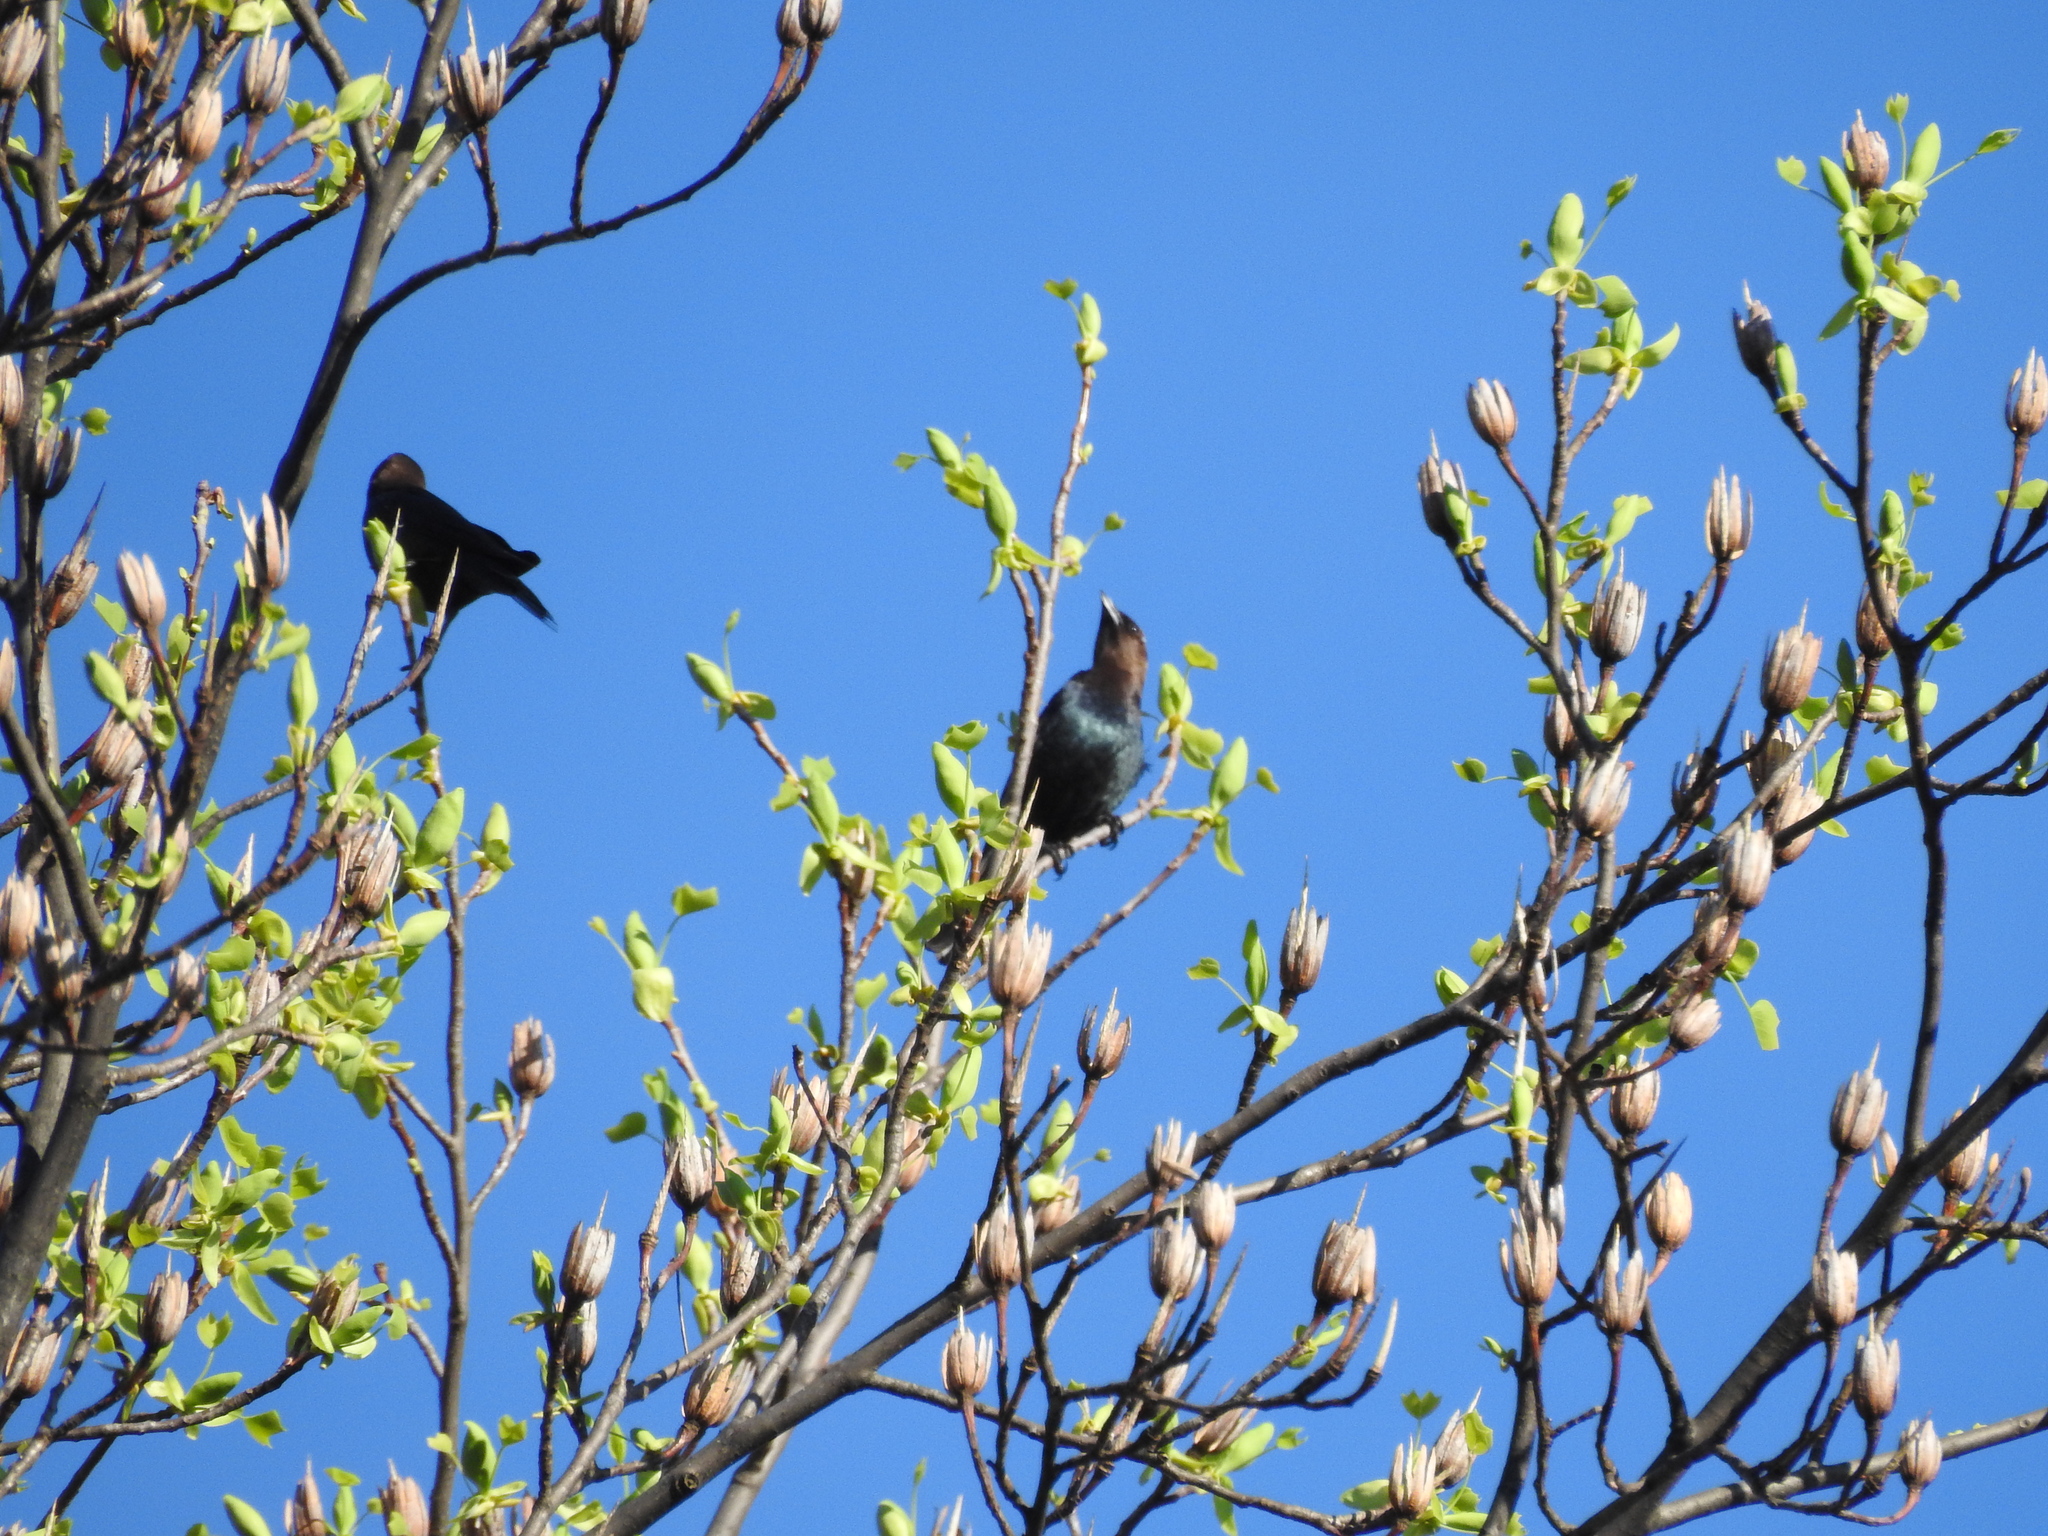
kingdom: Animalia
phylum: Chordata
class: Aves
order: Passeriformes
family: Icteridae
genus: Molothrus
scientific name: Molothrus ater
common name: Brown-headed cowbird
